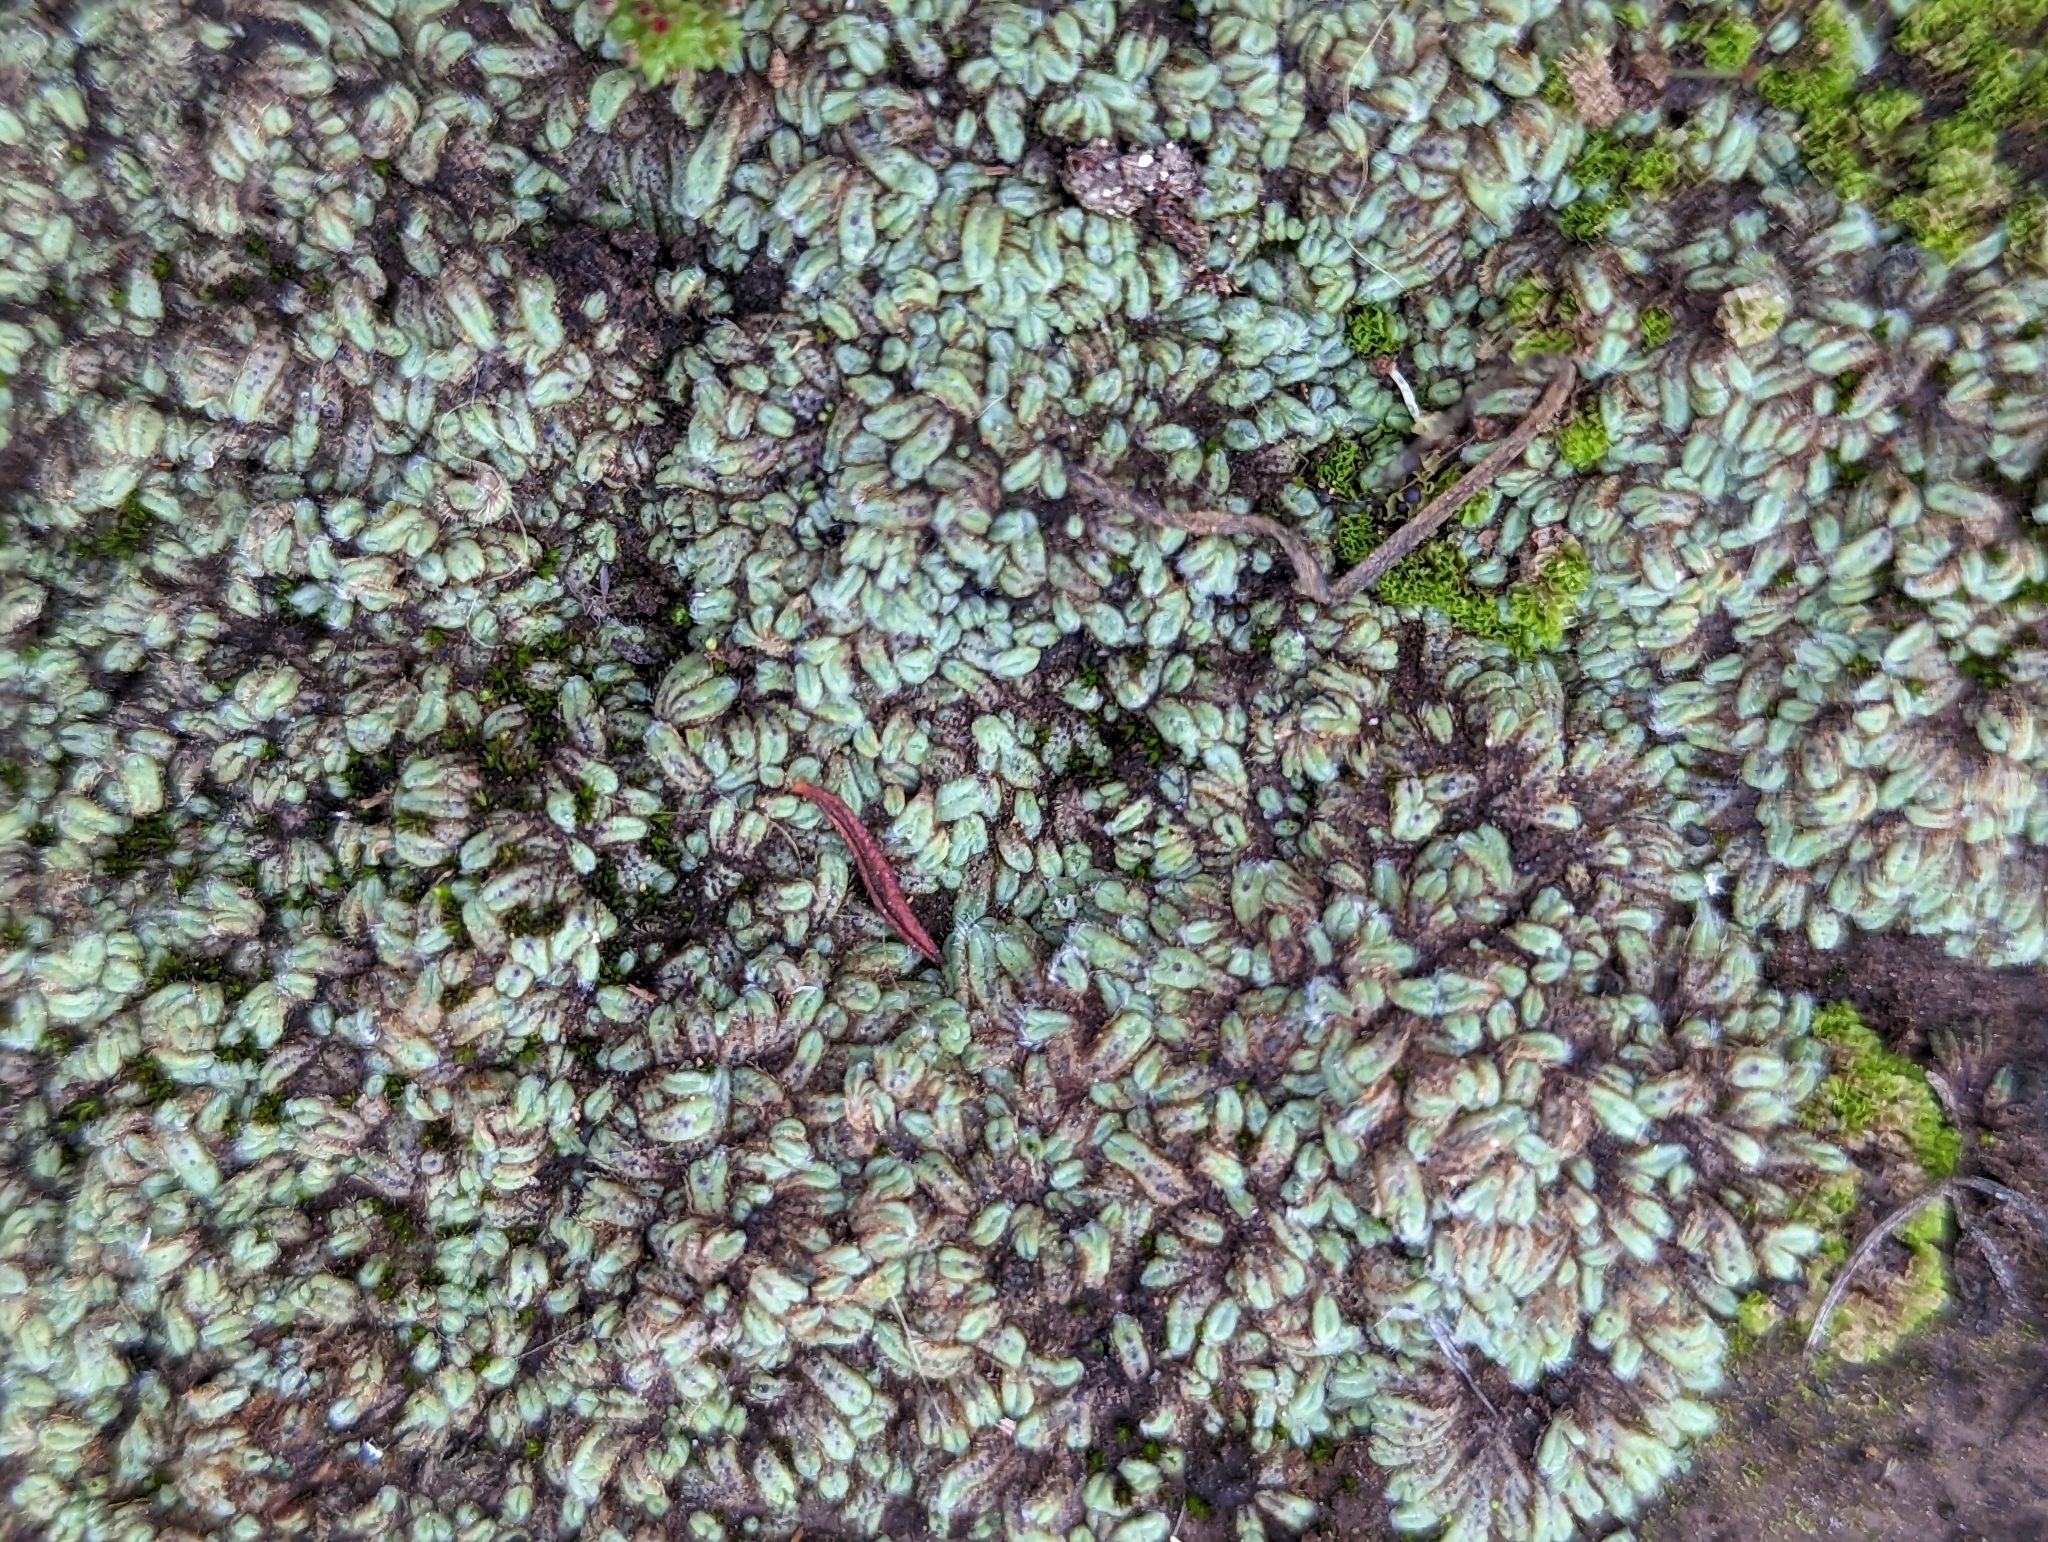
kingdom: Plantae
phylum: Marchantiophyta
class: Marchantiopsida
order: Marchantiales
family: Ricciaceae
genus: Riccia
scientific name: Riccia trichocarpa
